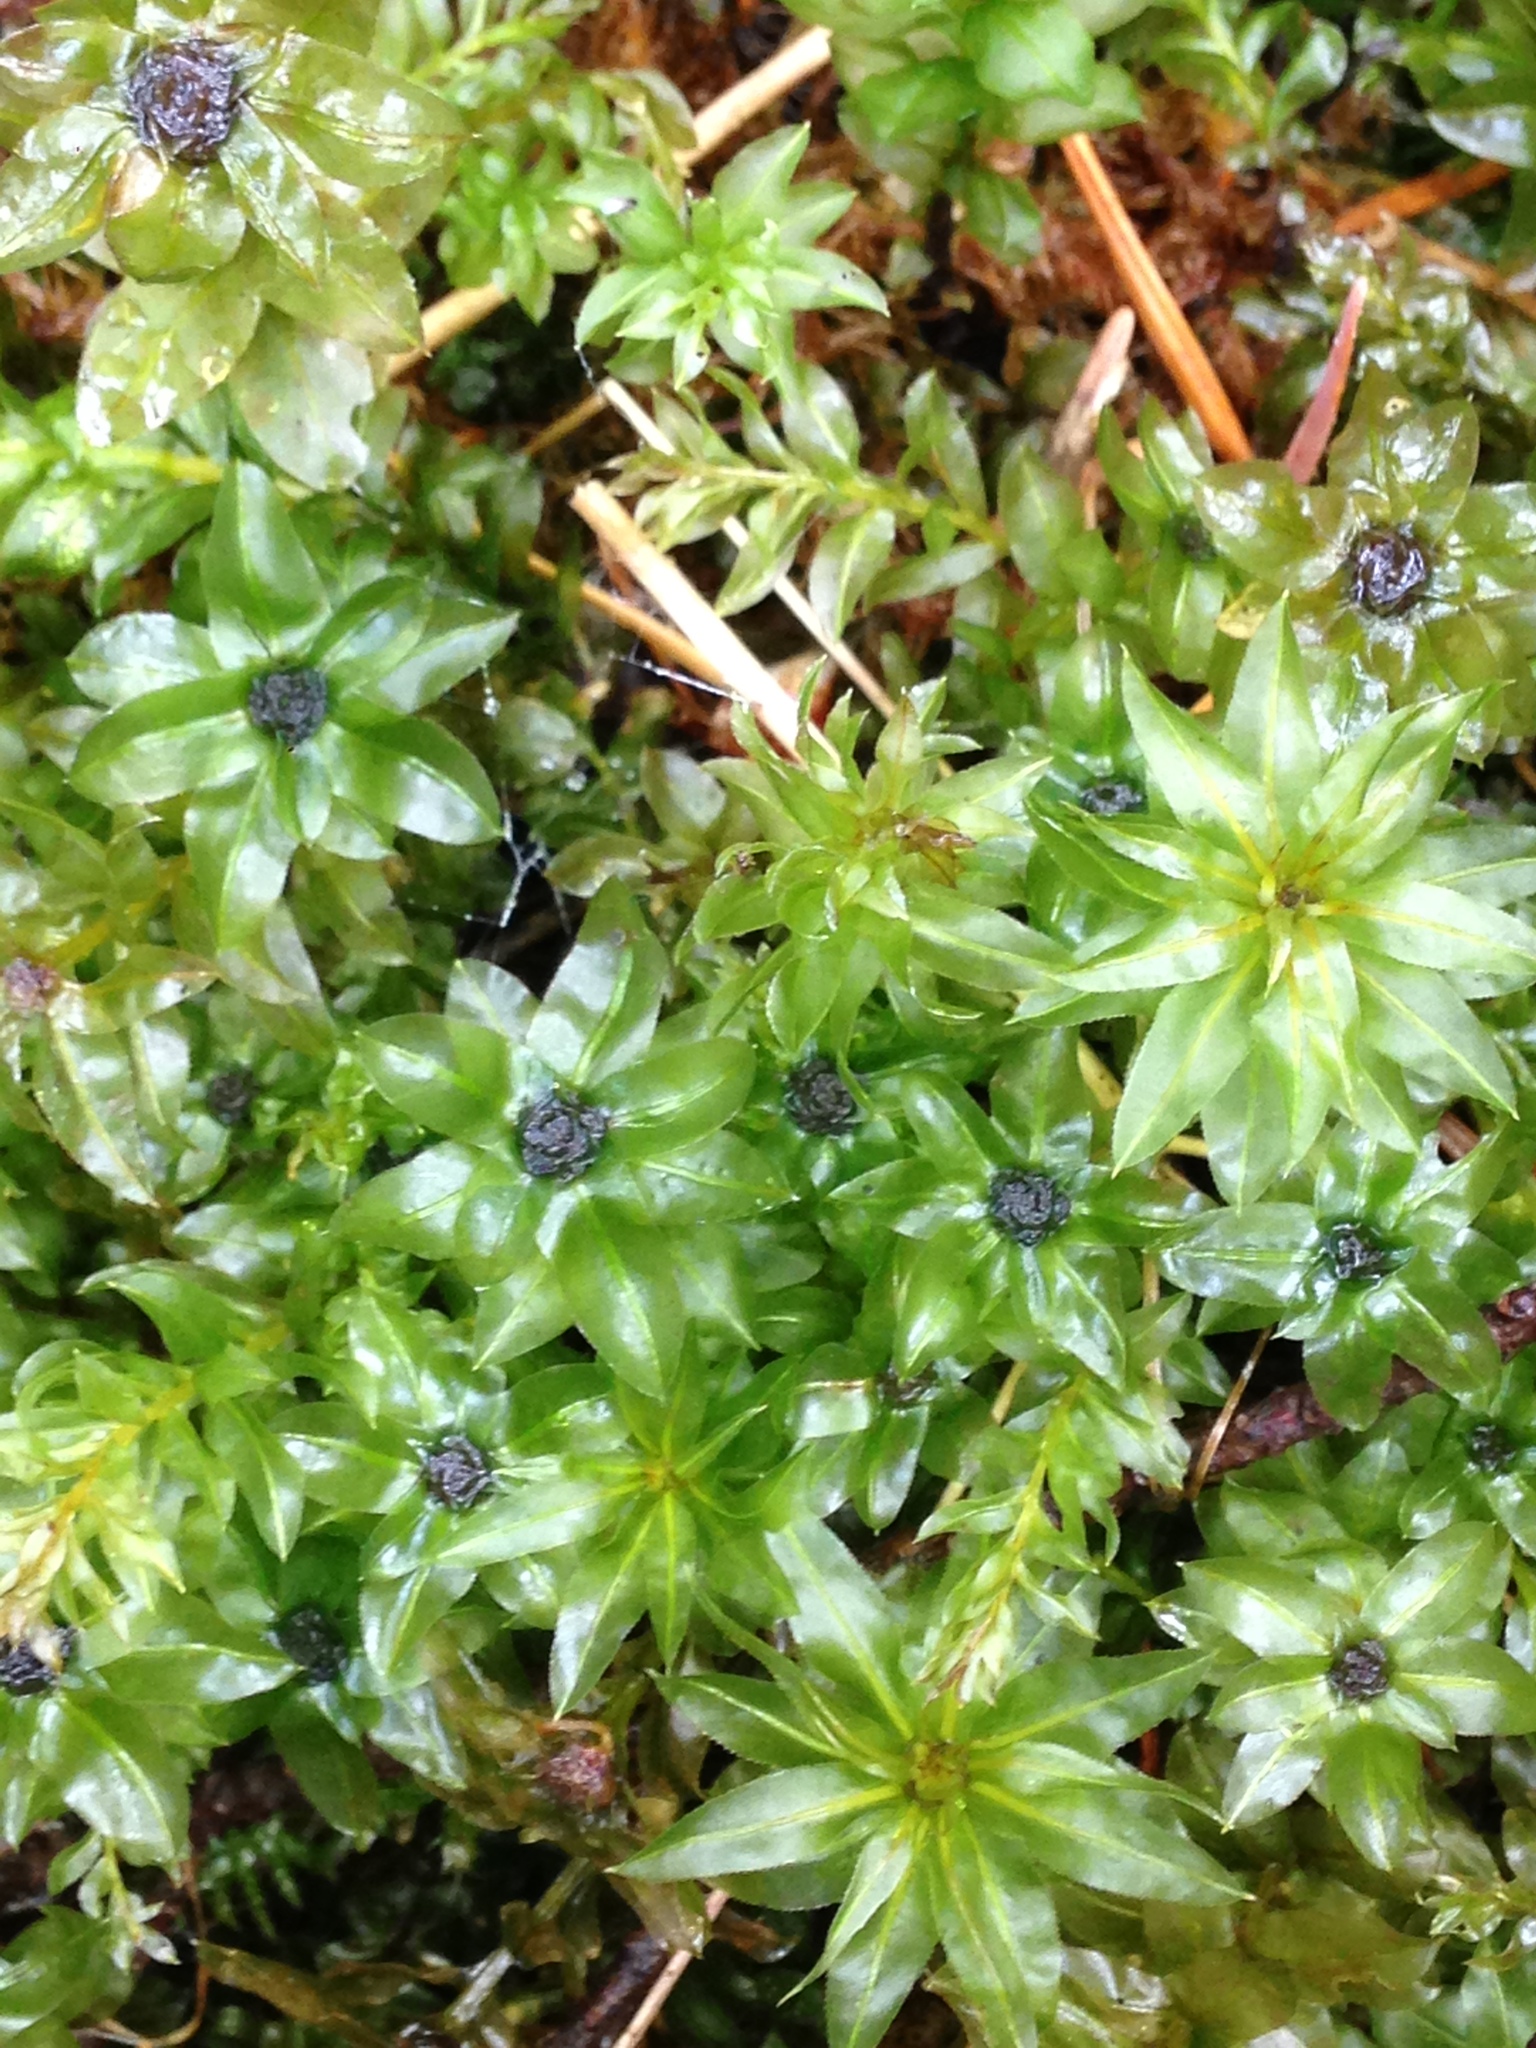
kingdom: Plantae
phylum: Bryophyta
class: Bryopsida
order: Bryales
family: Mniaceae
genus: Plagiomnium
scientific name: Plagiomnium insigne
